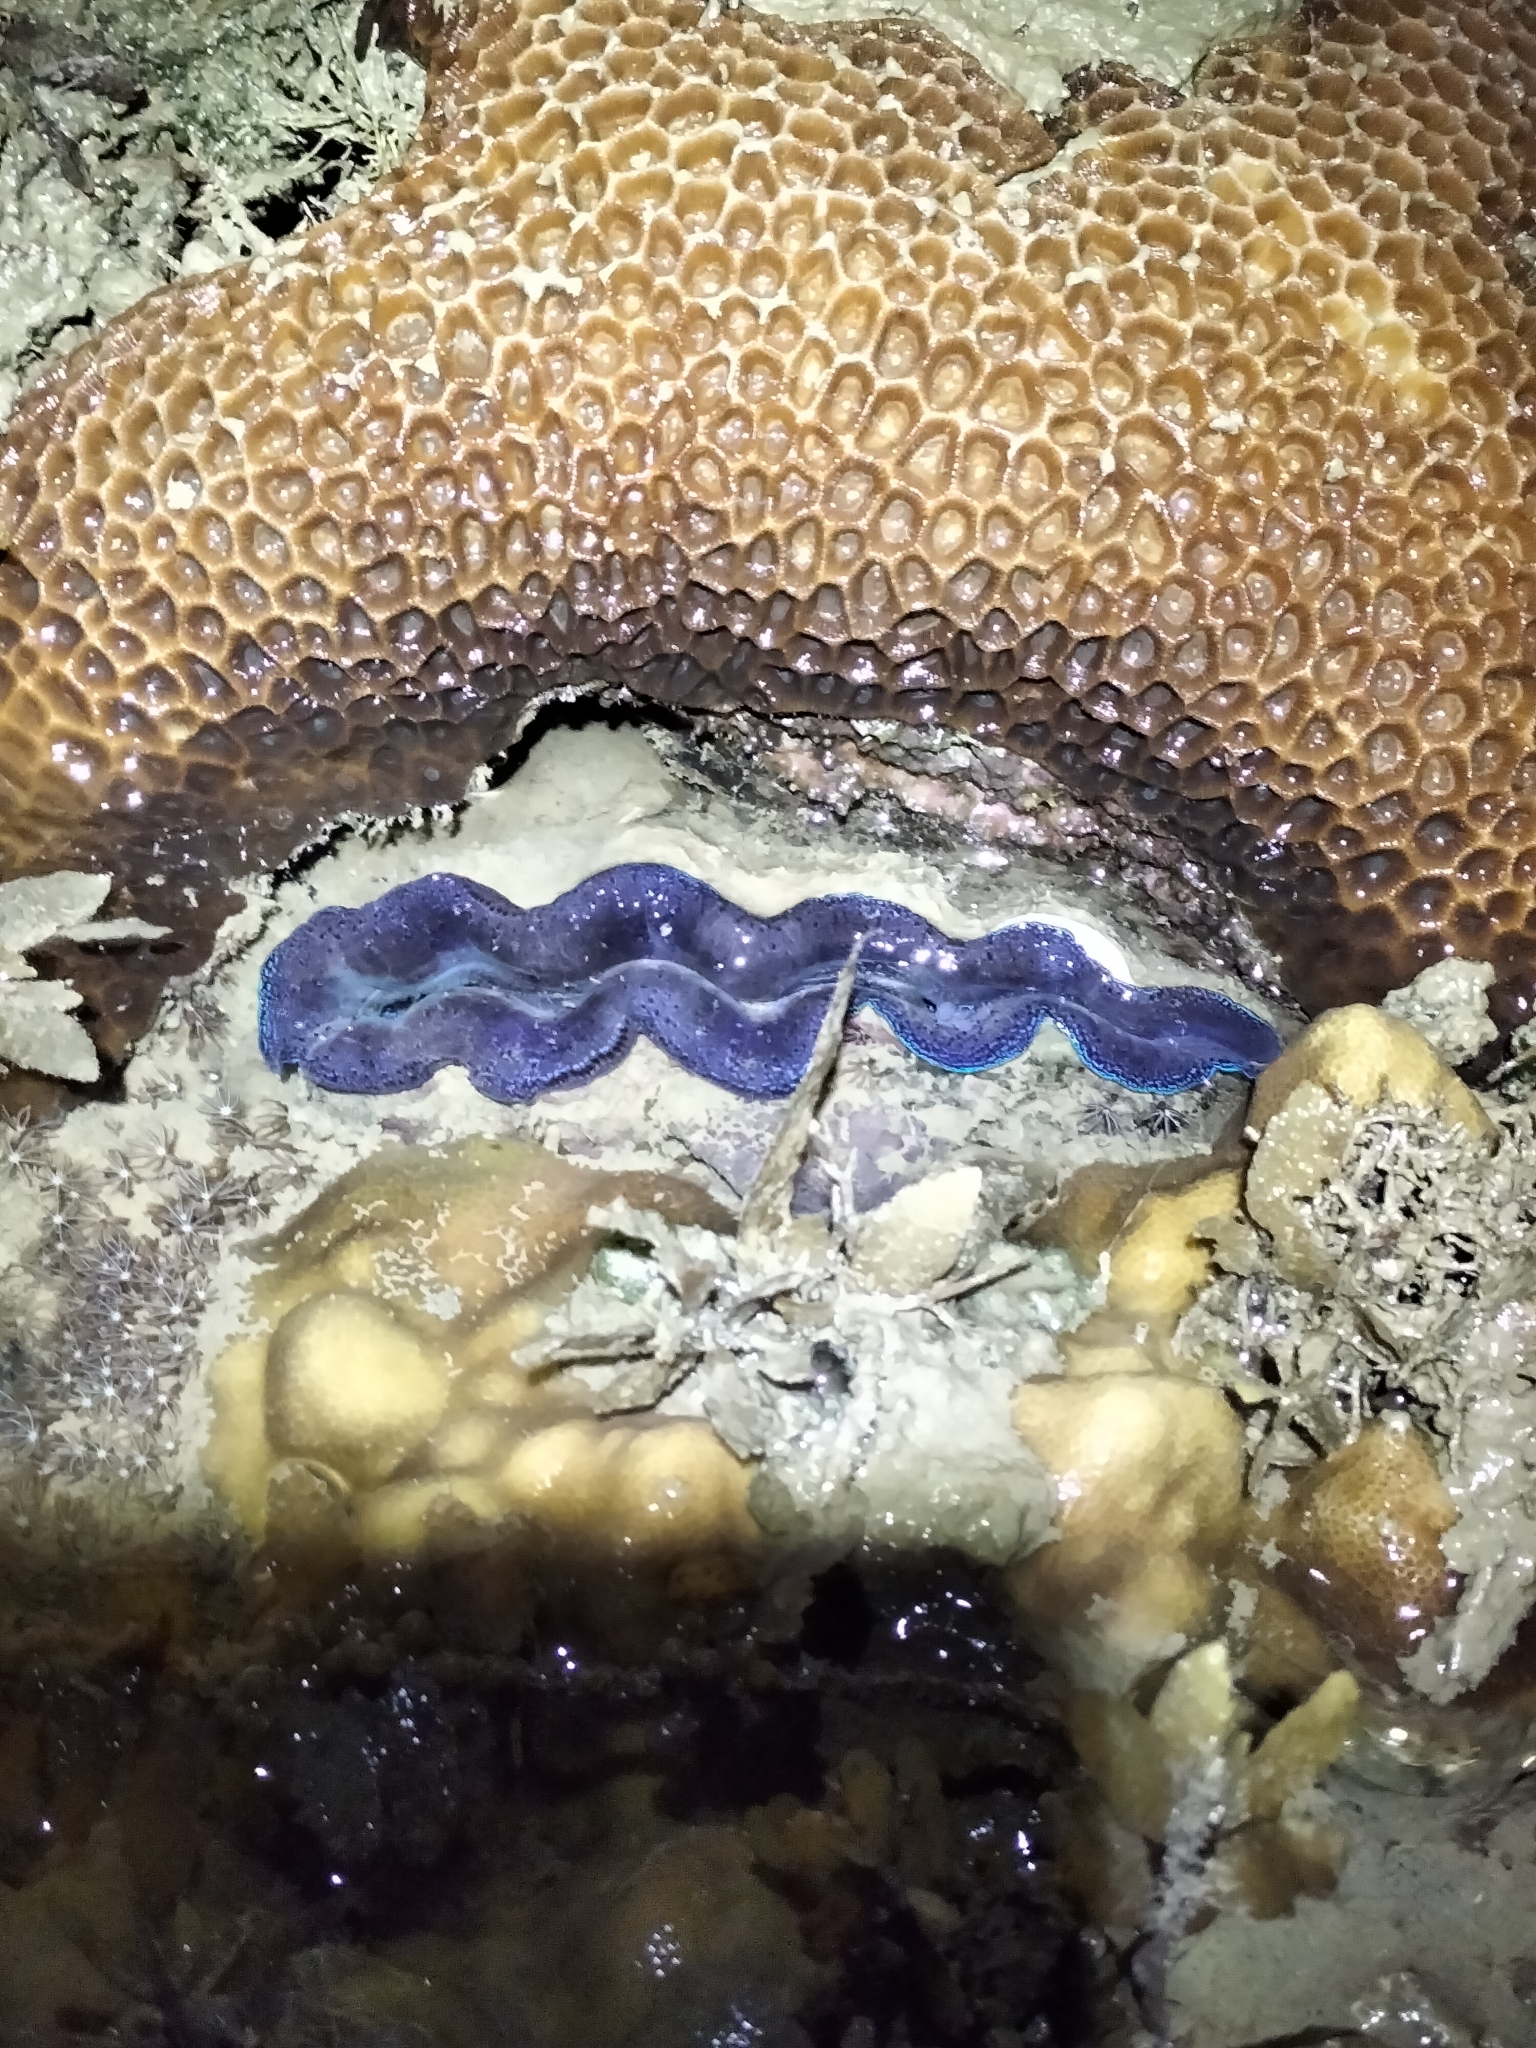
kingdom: Animalia
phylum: Mollusca
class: Bivalvia
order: Cardiida
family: Cardiidae
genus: Tridacna
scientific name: Tridacna crocea
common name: Boring clam
